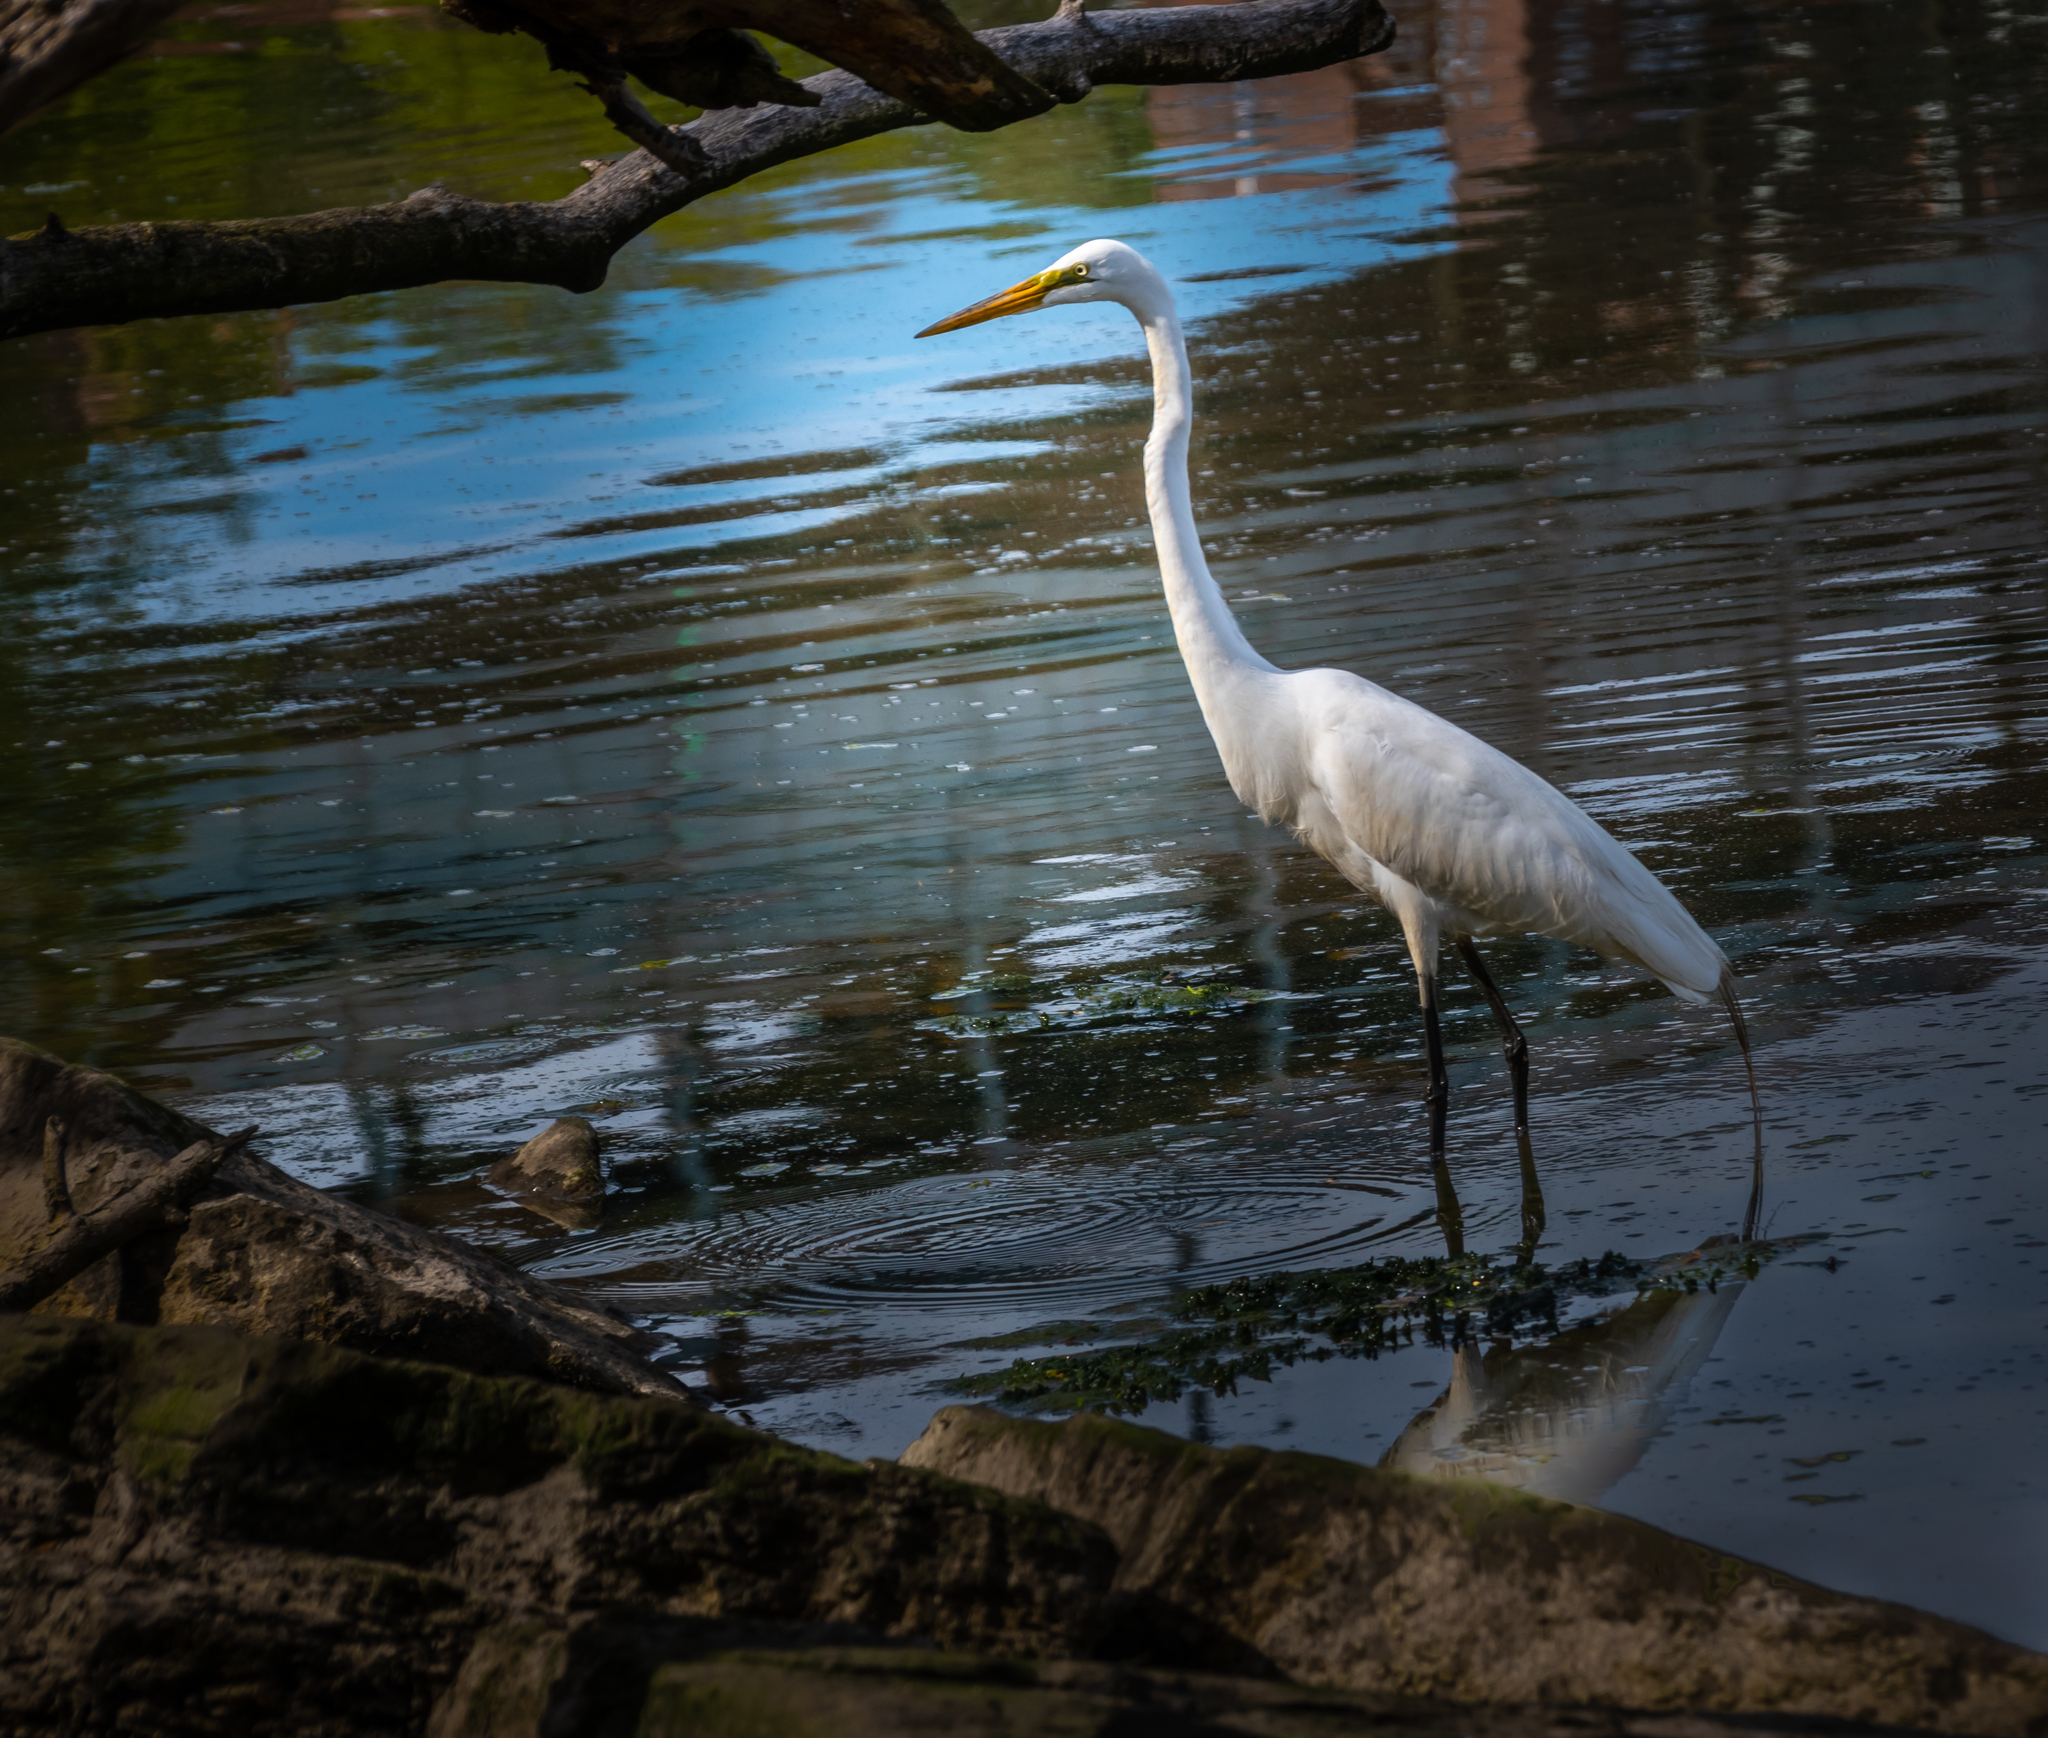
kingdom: Animalia
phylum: Chordata
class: Aves
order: Pelecaniformes
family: Ardeidae
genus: Ardea
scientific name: Ardea alba
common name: Great egret
